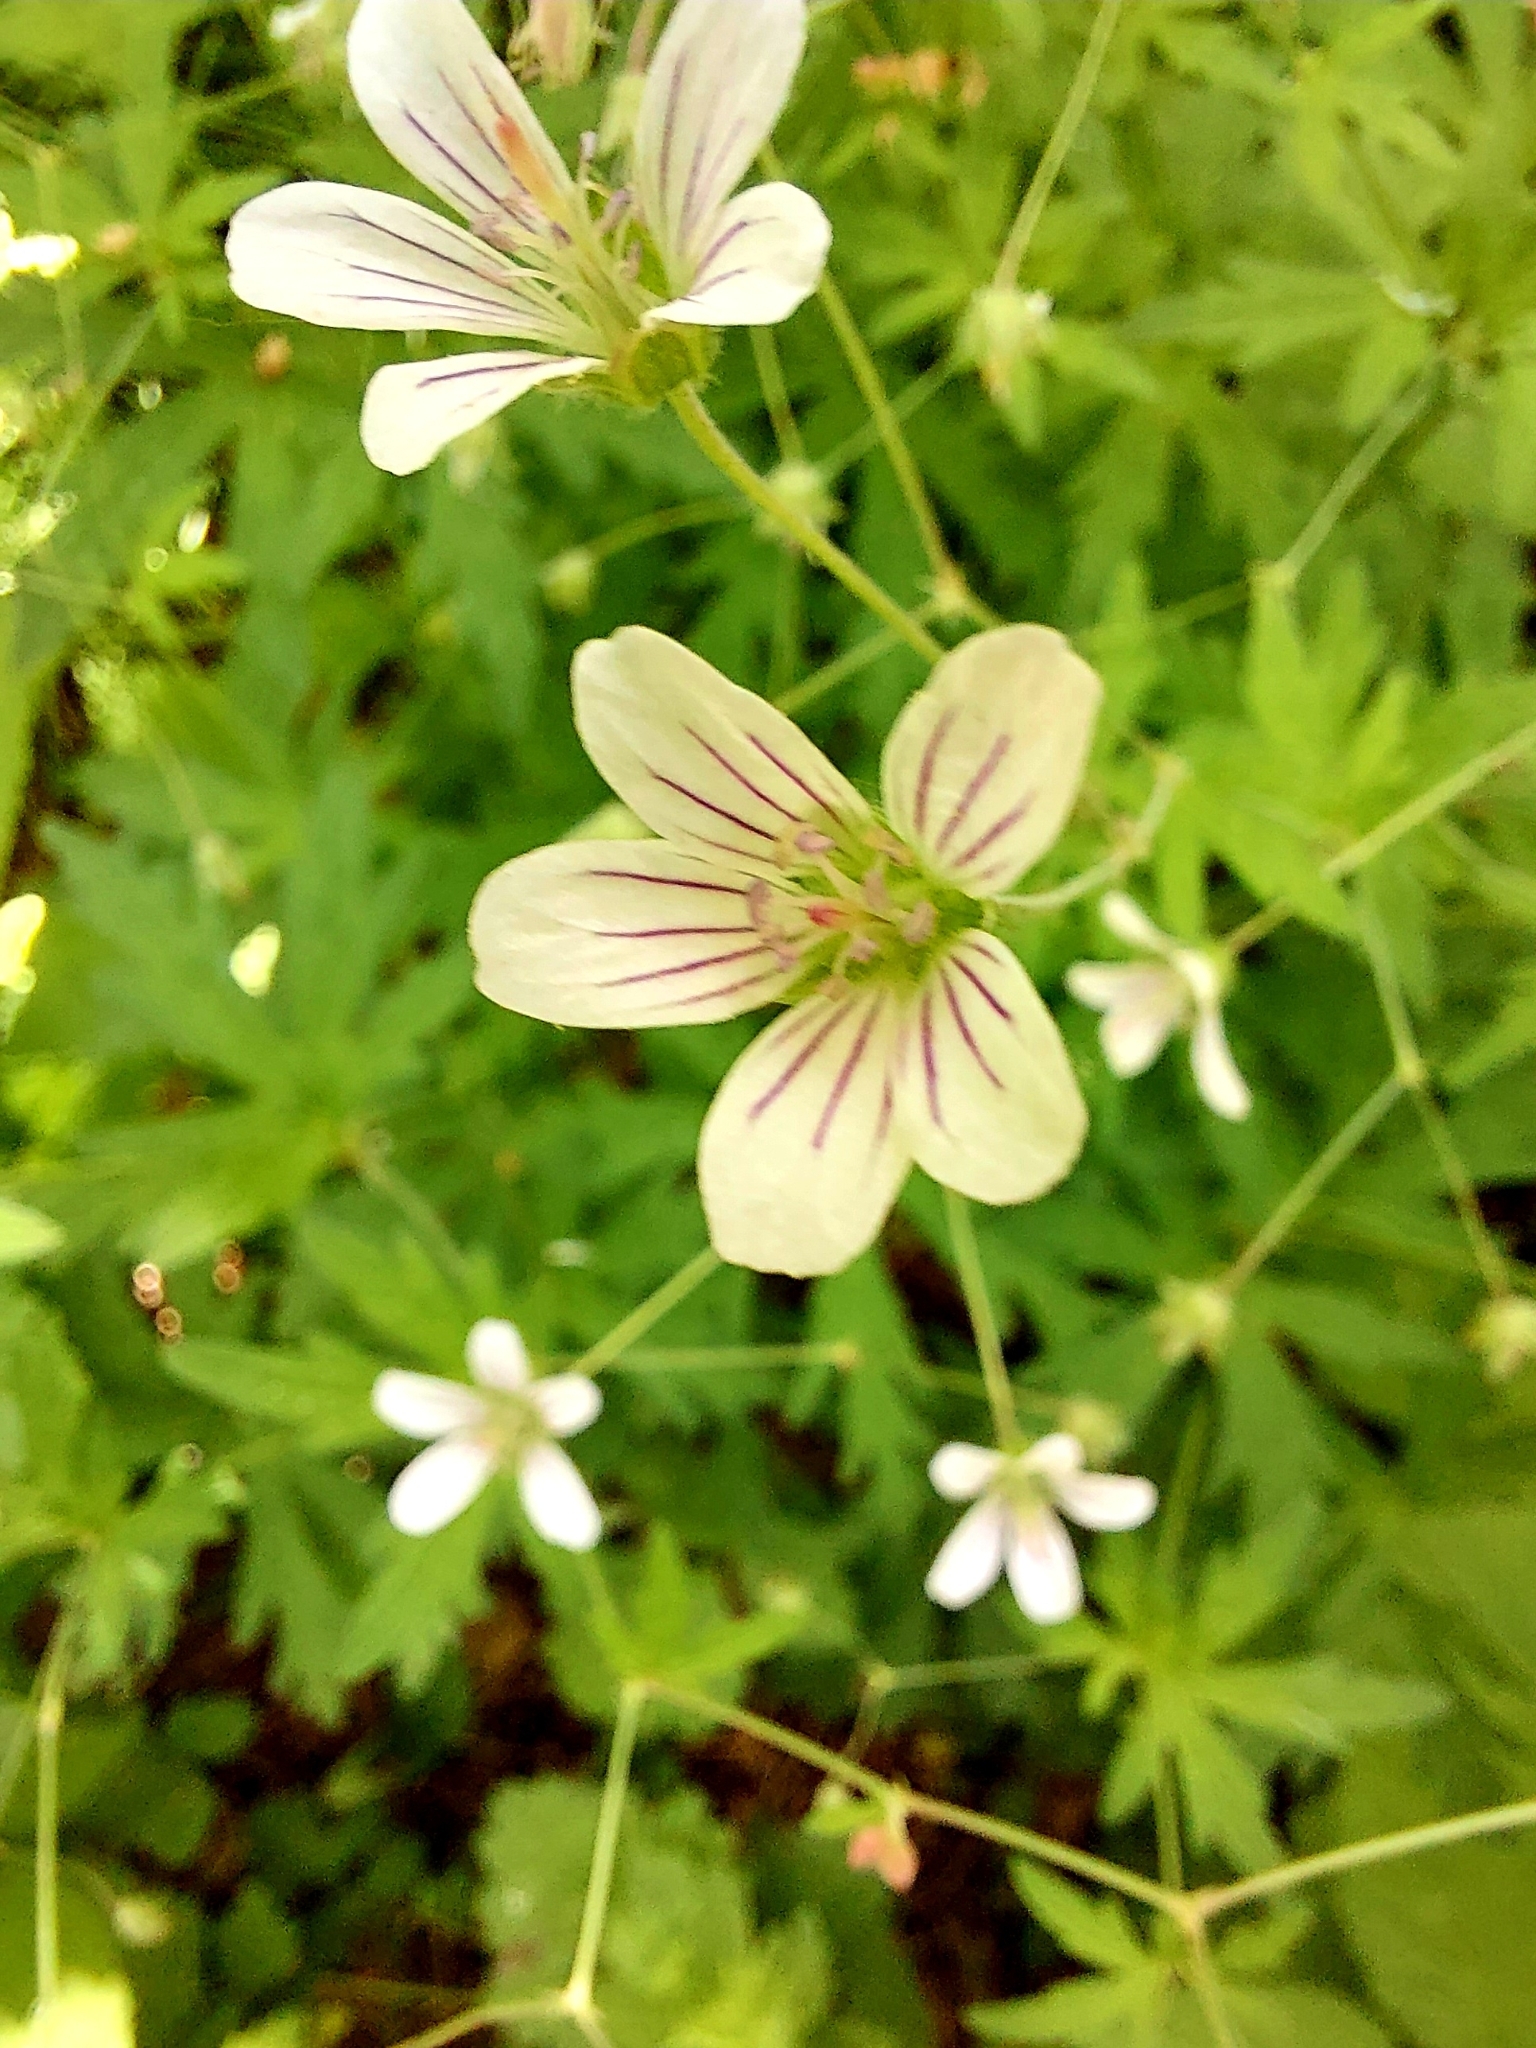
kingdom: Plantae
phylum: Tracheophyta
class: Magnoliopsida
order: Geraniales
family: Geraniaceae
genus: Geranium
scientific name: Geranium pseudosibiricum
